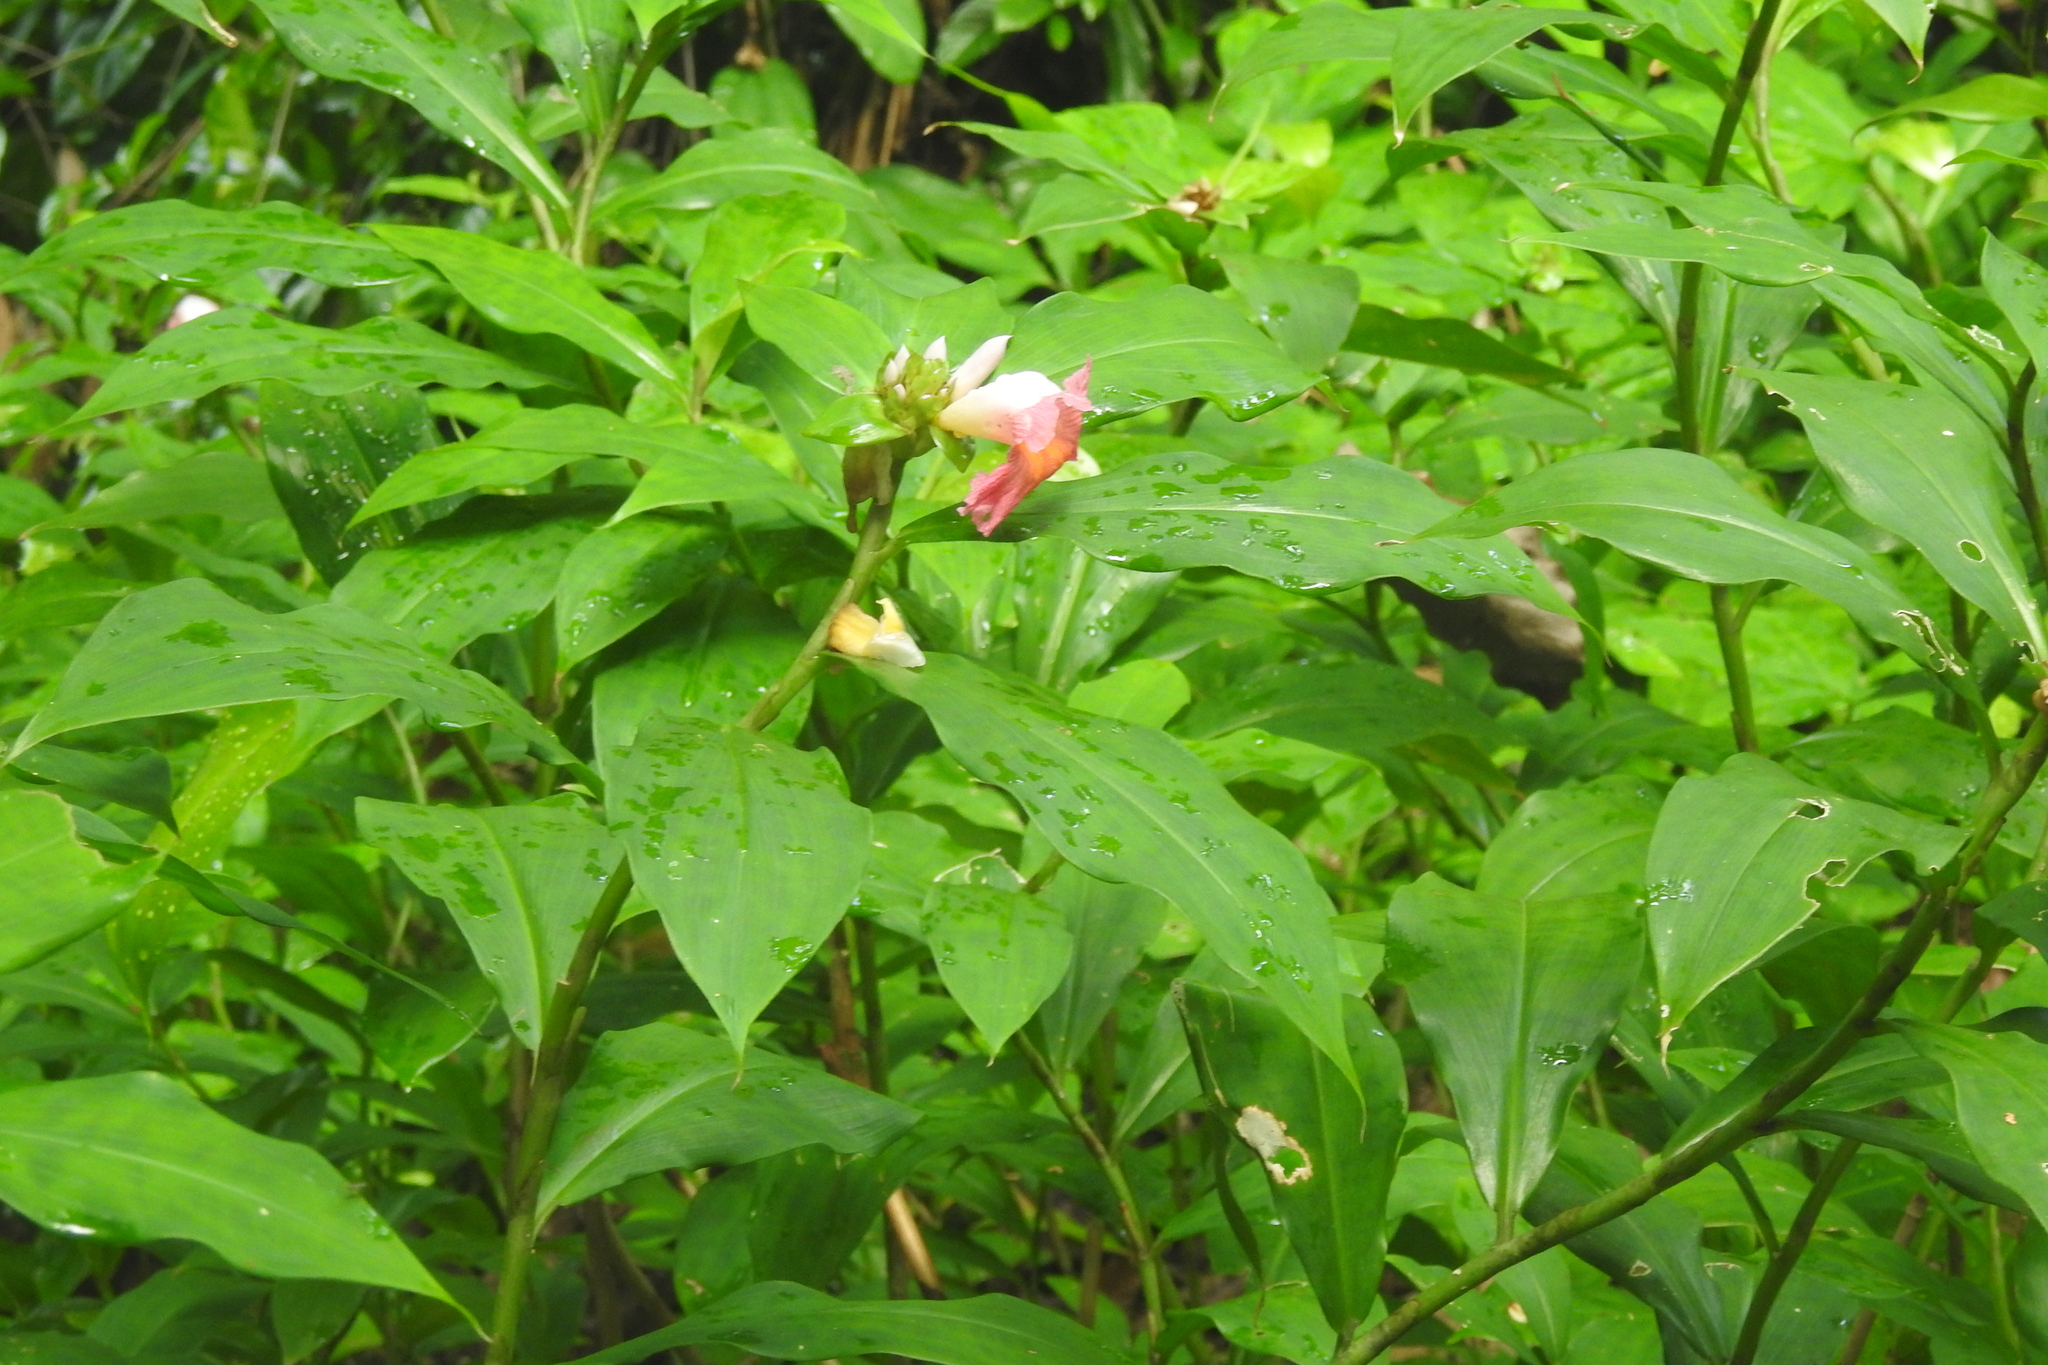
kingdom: Plantae
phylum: Tracheophyta
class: Liliopsida
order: Zingiberales
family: Costaceae
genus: Costus
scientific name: Costus lucanusianus
